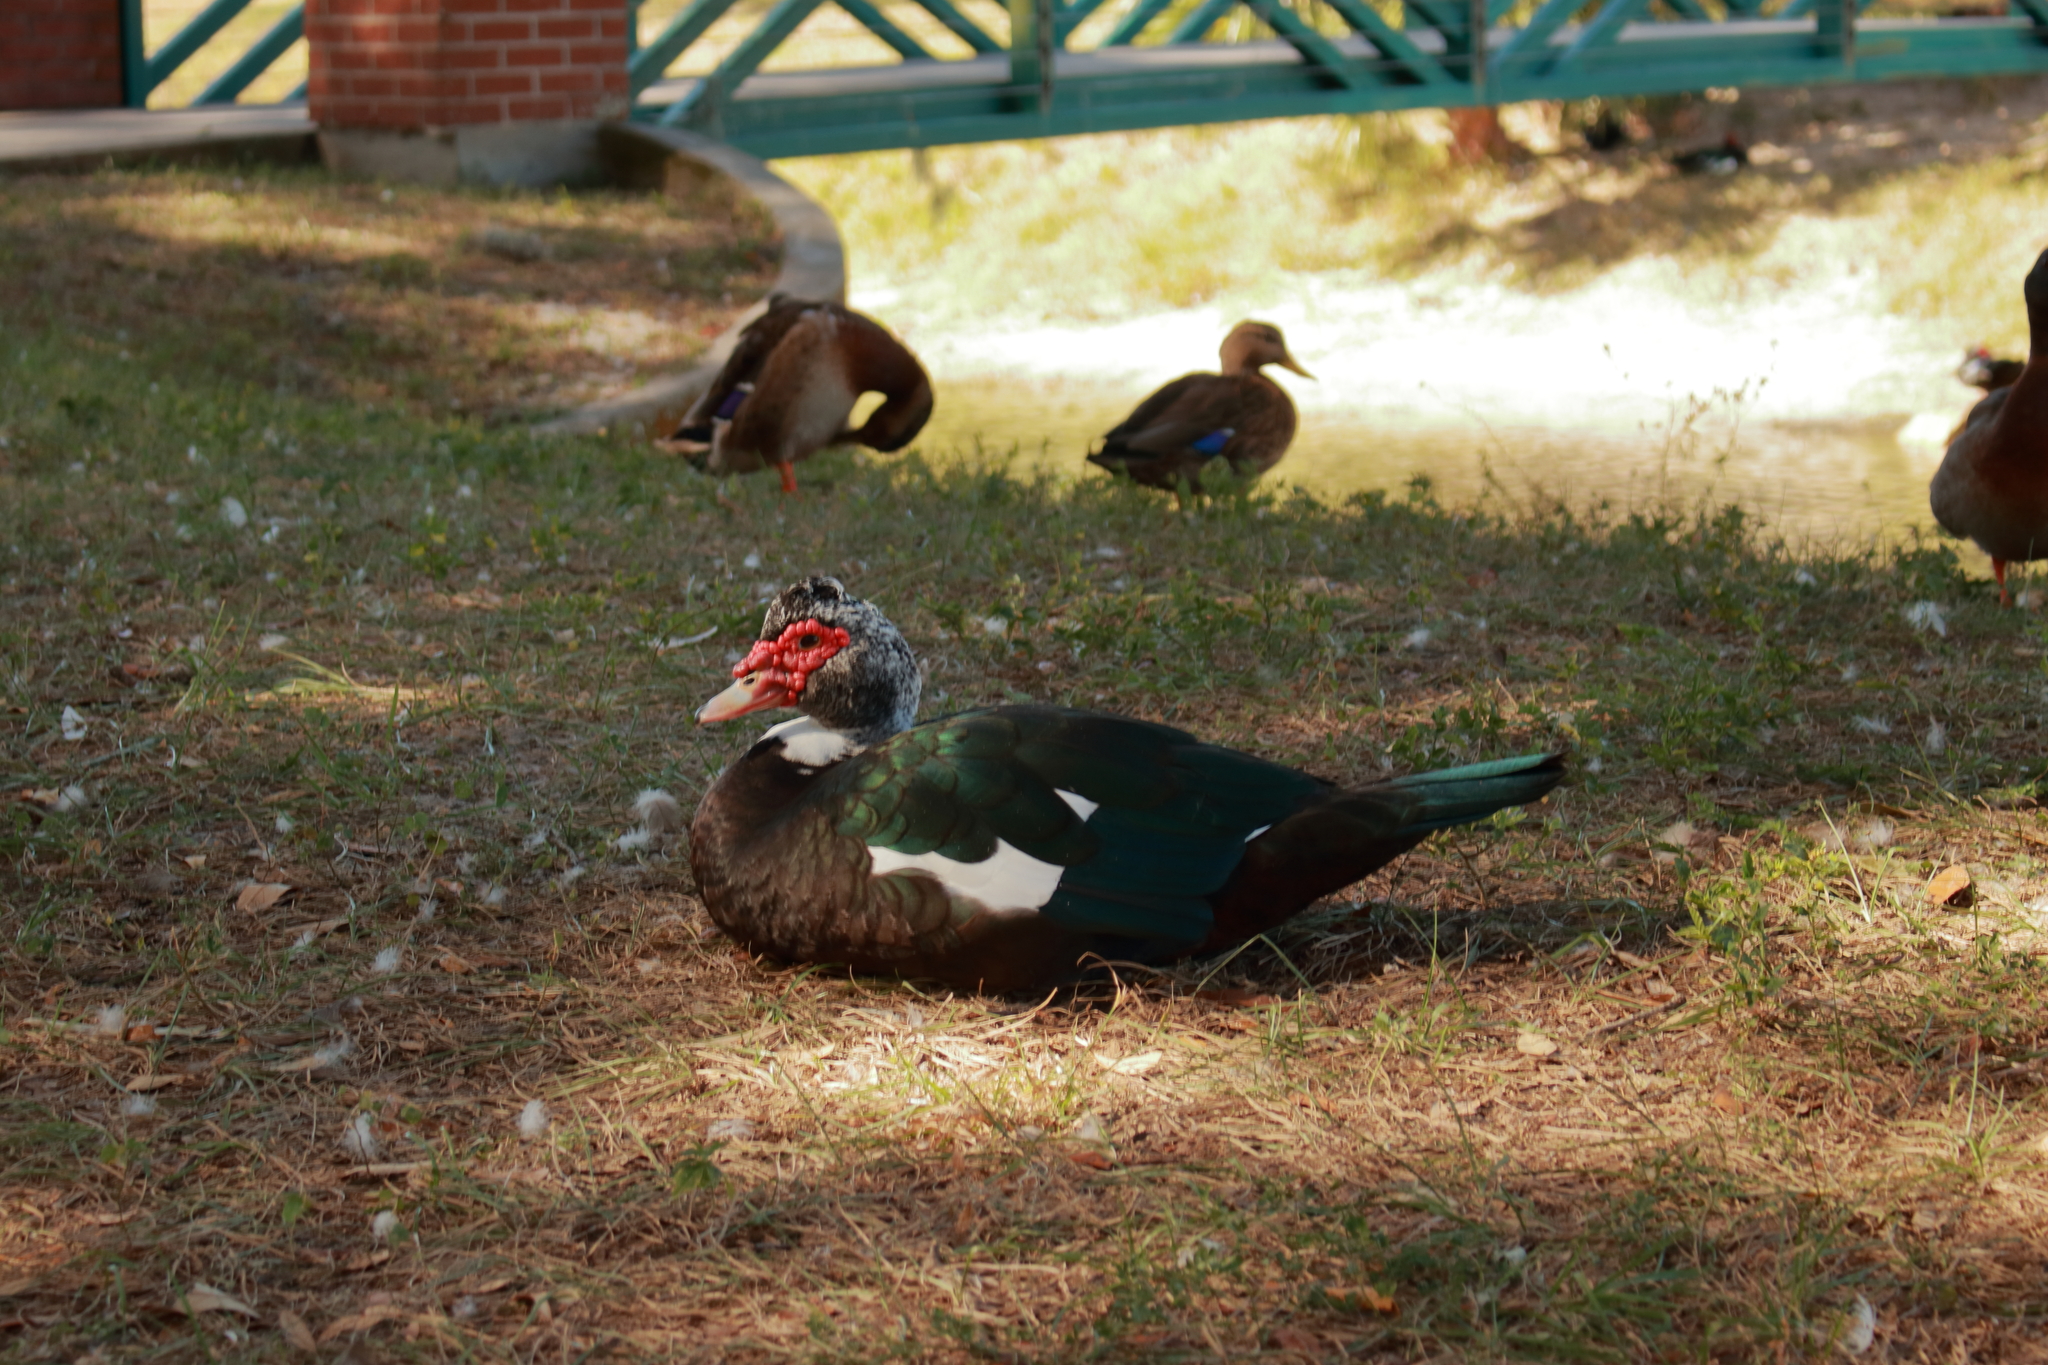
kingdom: Animalia
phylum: Chordata
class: Aves
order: Anseriformes
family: Anatidae
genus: Cairina
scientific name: Cairina moschata
